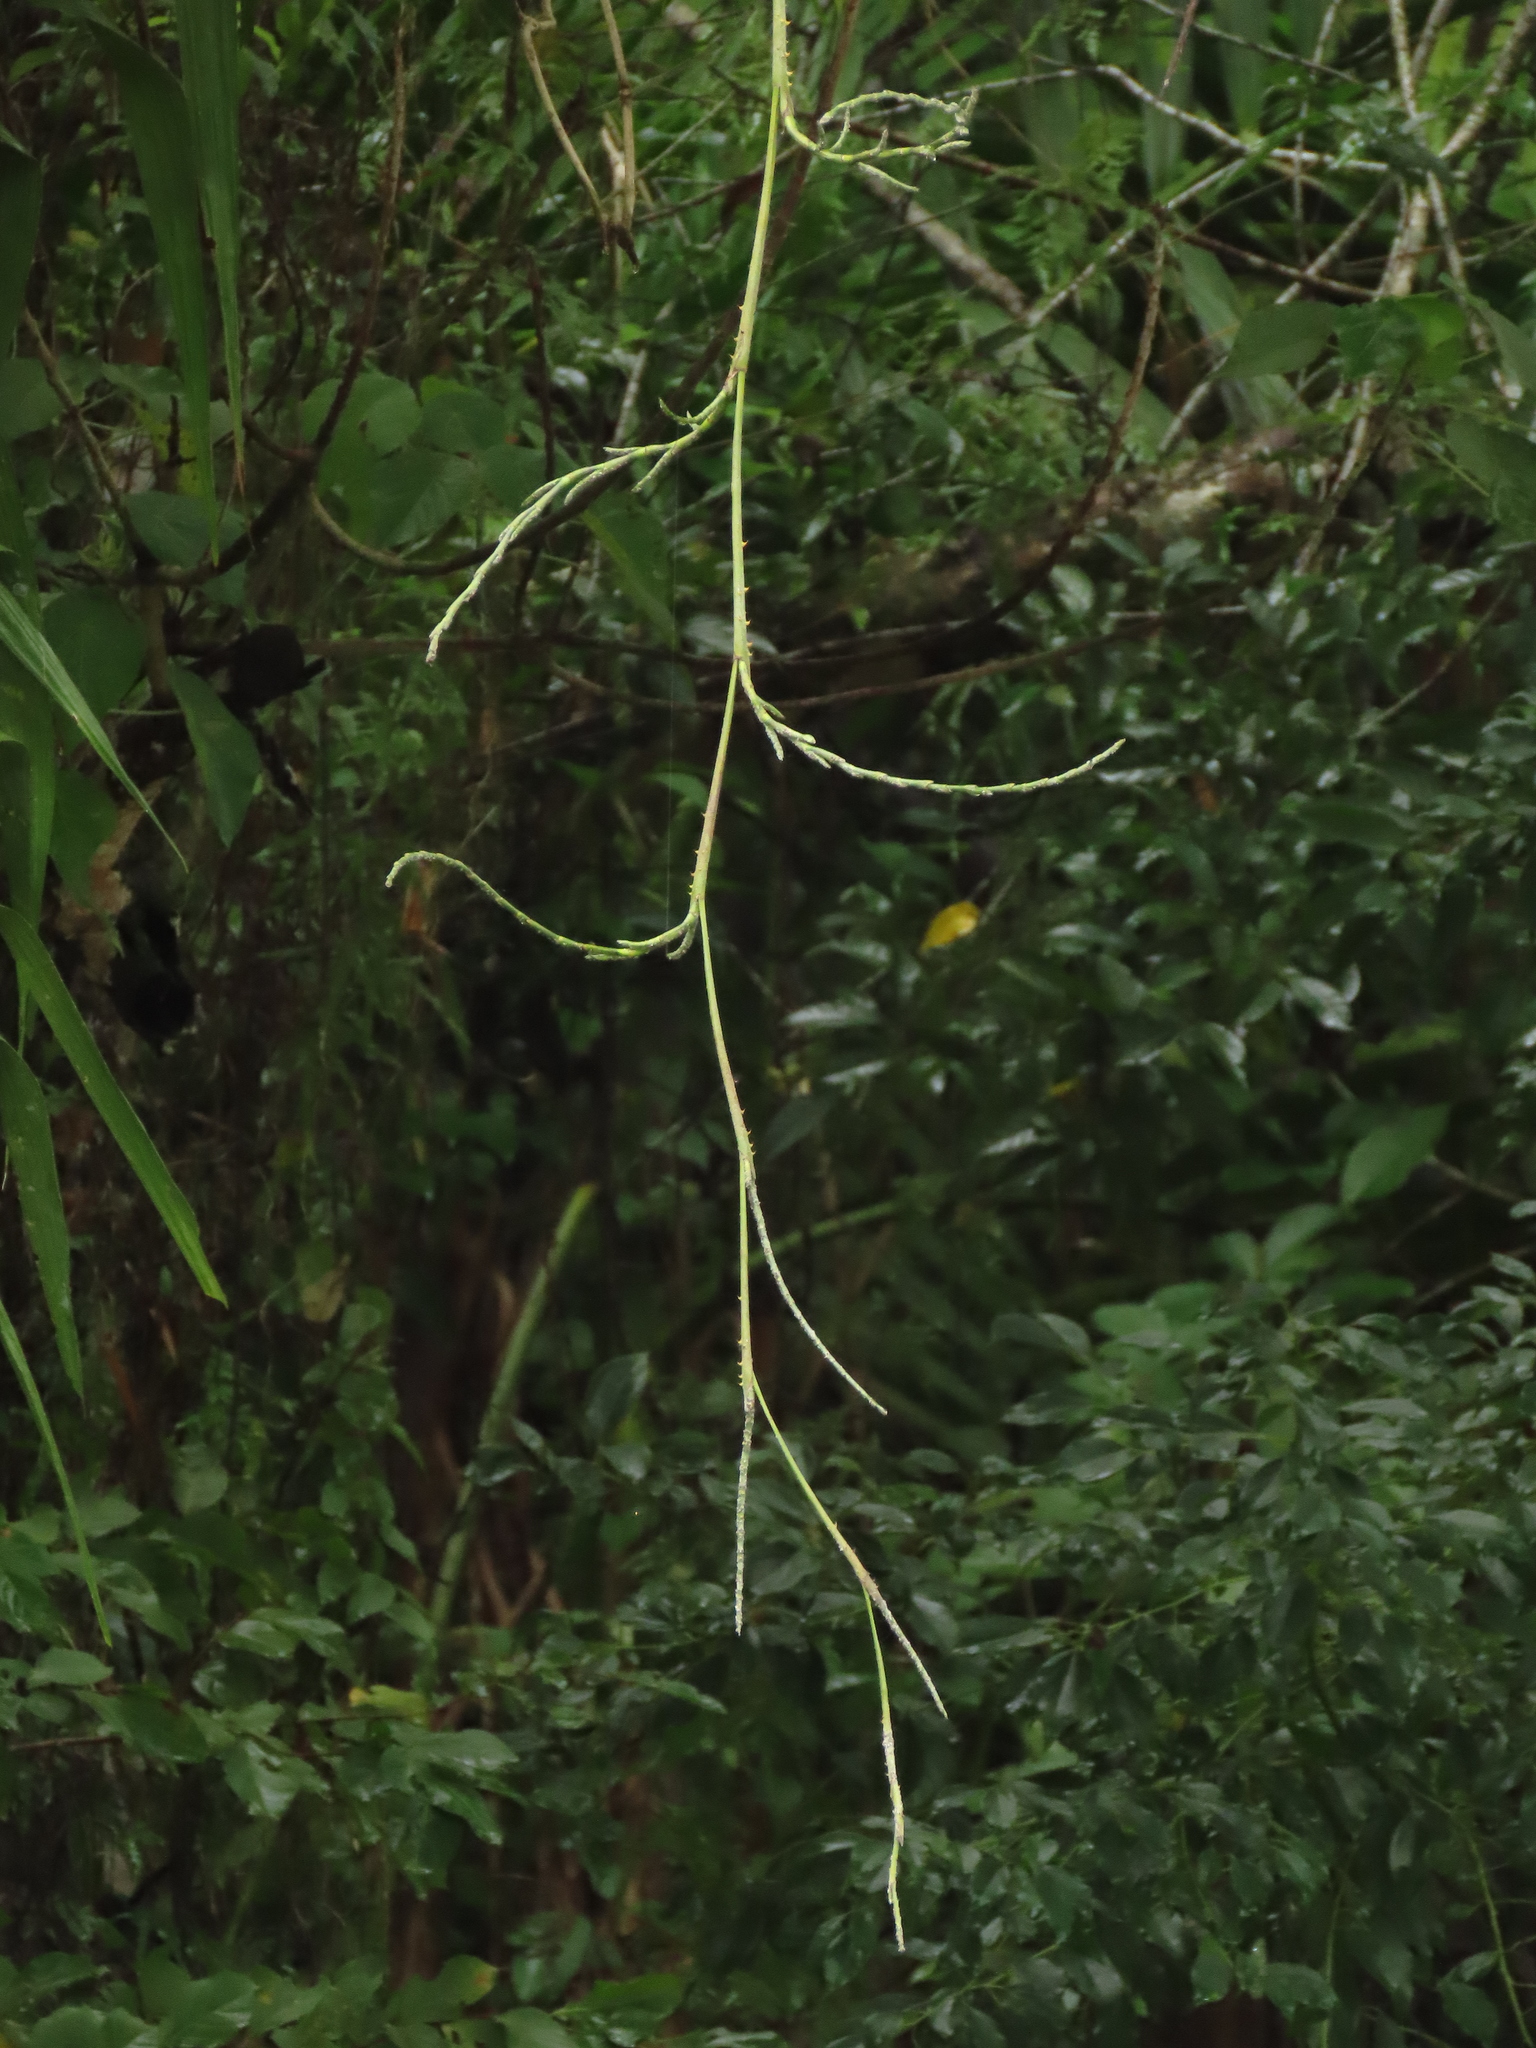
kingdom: Plantae
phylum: Tracheophyta
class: Liliopsida
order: Arecales
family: Arecaceae
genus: Calamus
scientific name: Calamus formosanus
